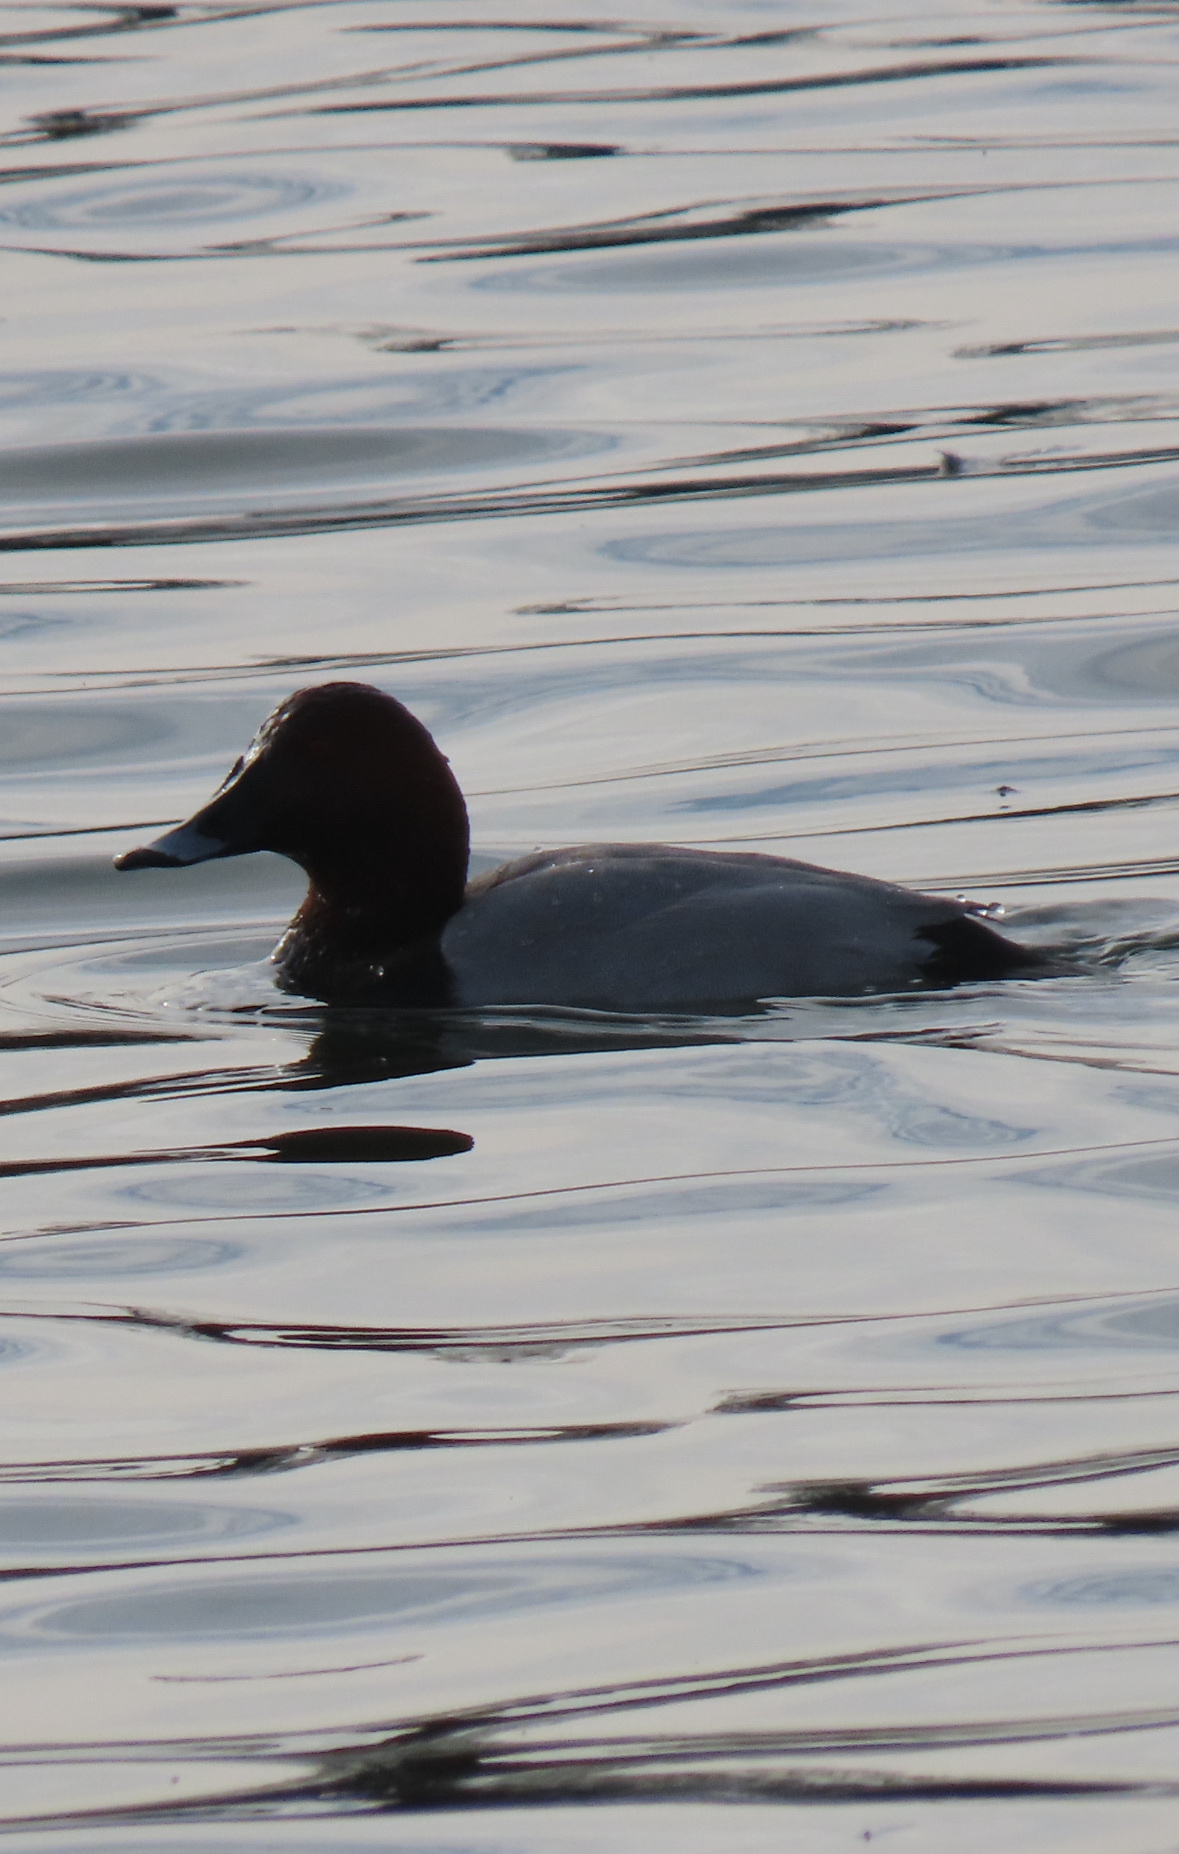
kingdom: Animalia
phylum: Chordata
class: Aves
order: Anseriformes
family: Anatidae
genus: Aythya
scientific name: Aythya ferina
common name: Common pochard
